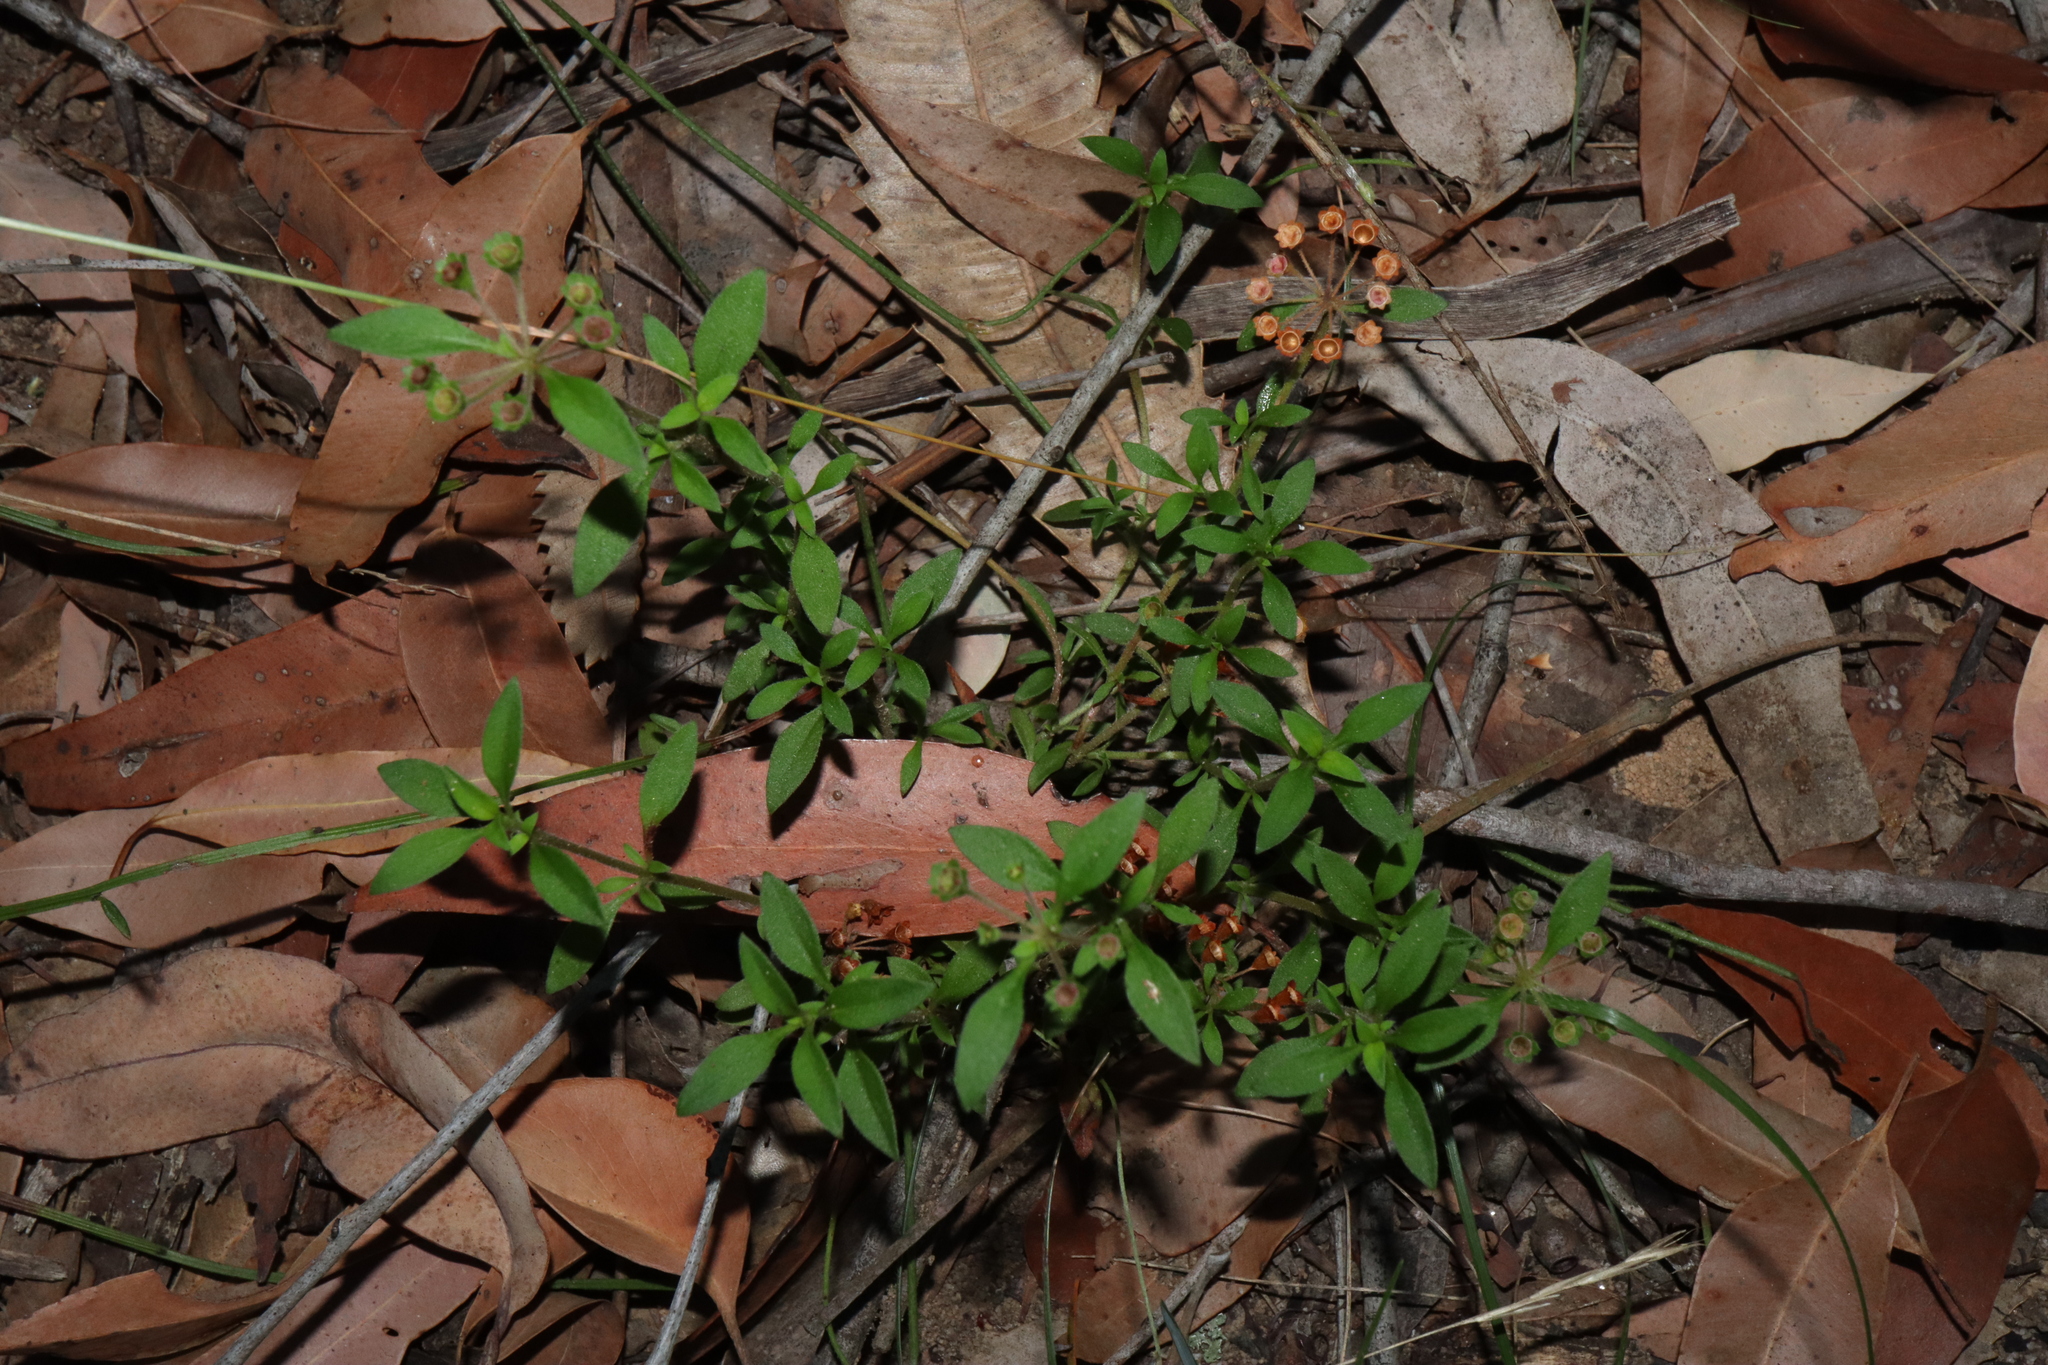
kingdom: Plantae
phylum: Tracheophyta
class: Magnoliopsida
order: Gentianales
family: Rubiaceae
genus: Pomax
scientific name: Pomax umbellata
